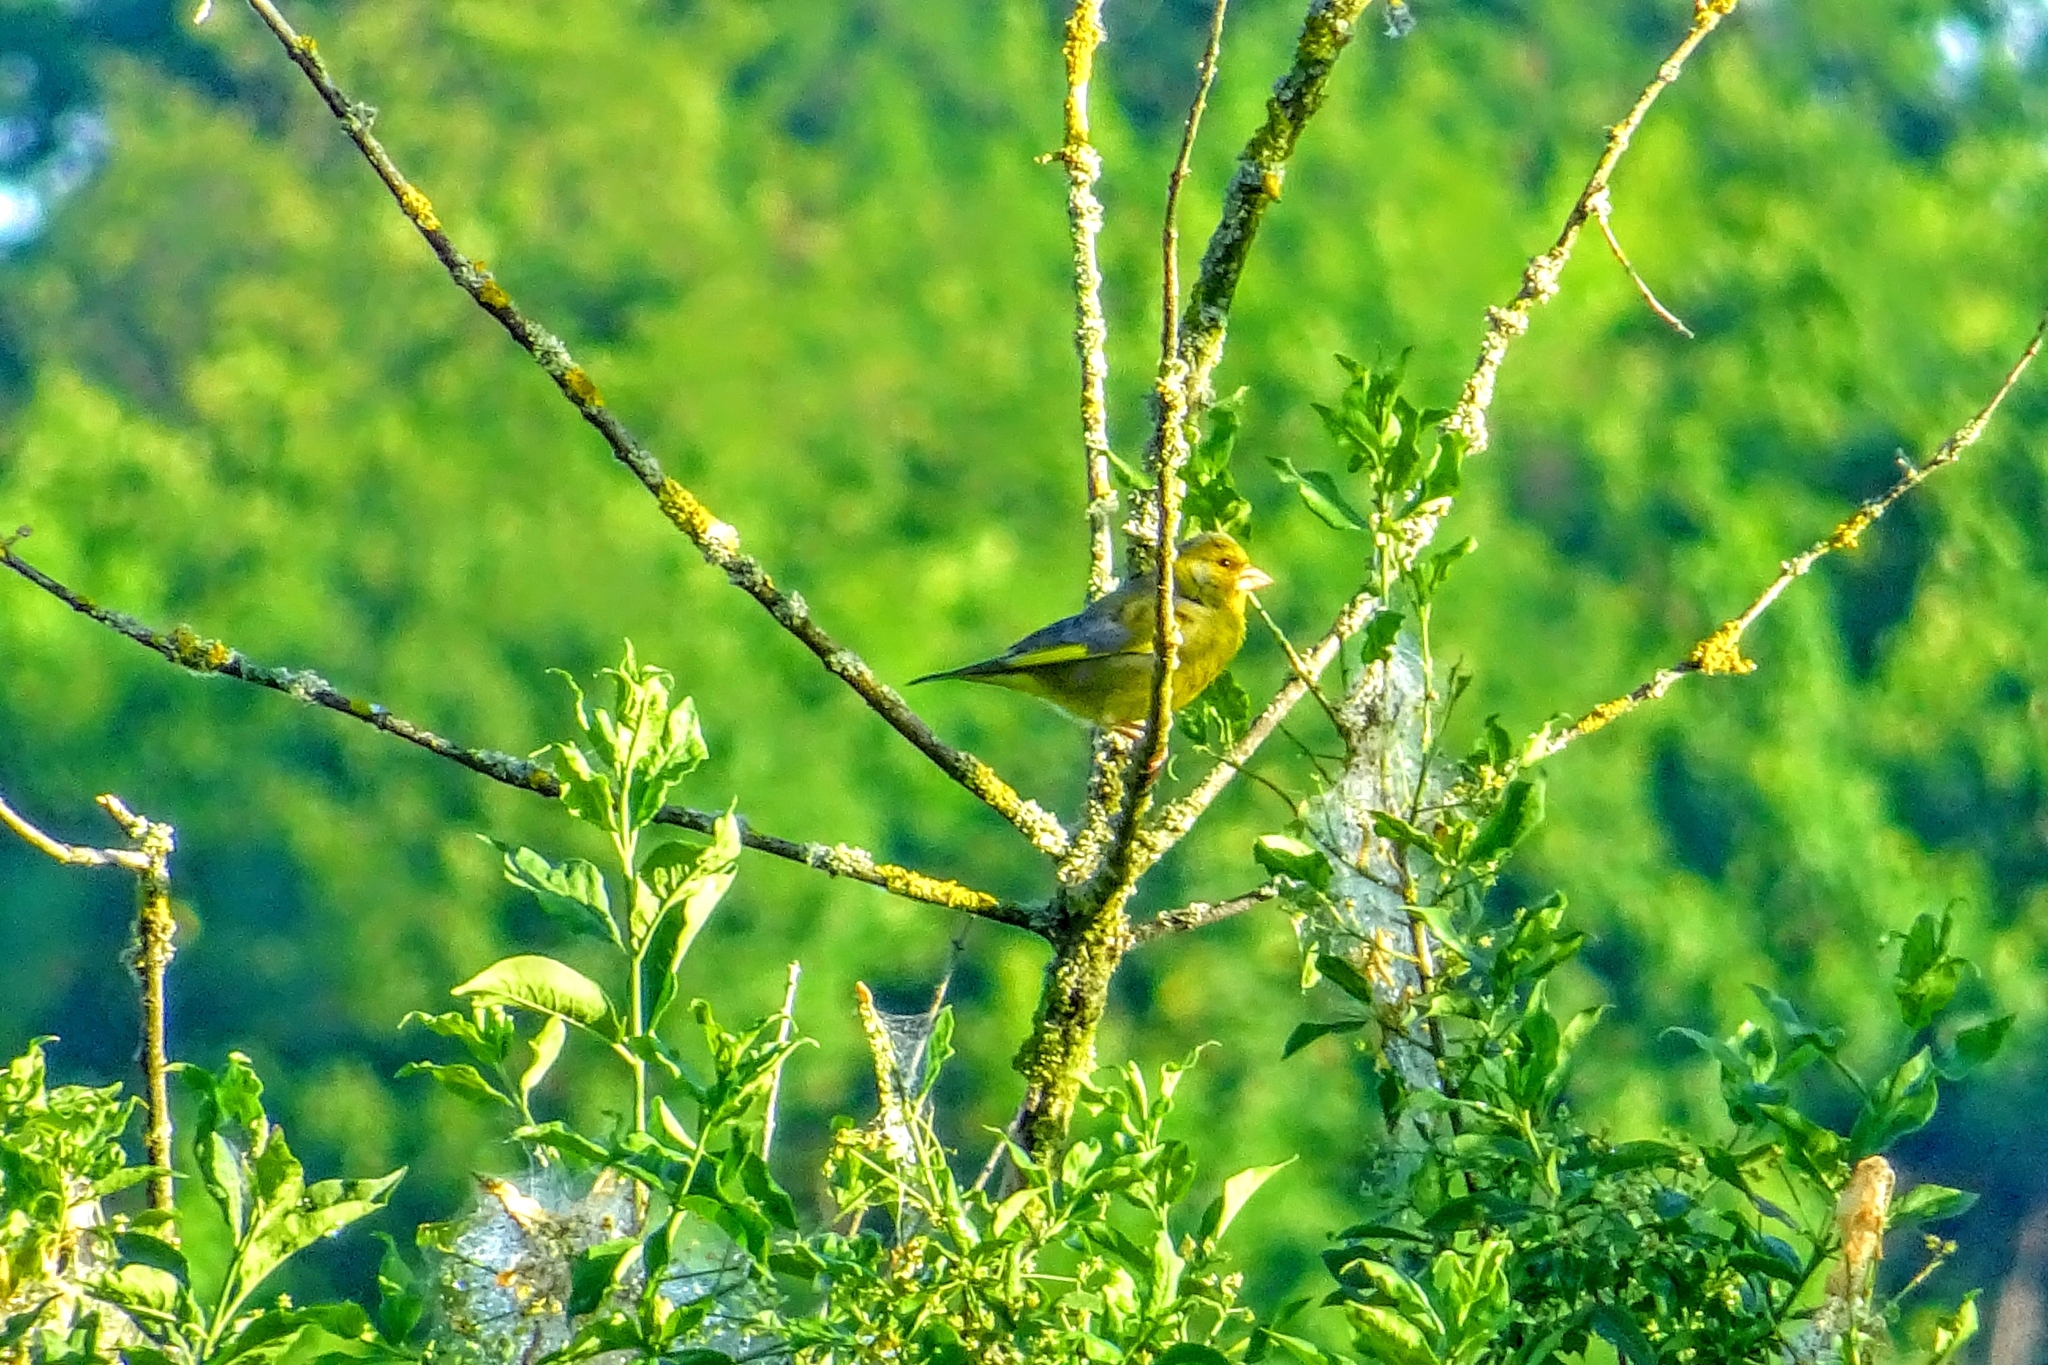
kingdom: Plantae
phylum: Tracheophyta
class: Liliopsida
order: Poales
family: Poaceae
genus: Chloris
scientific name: Chloris chloris
